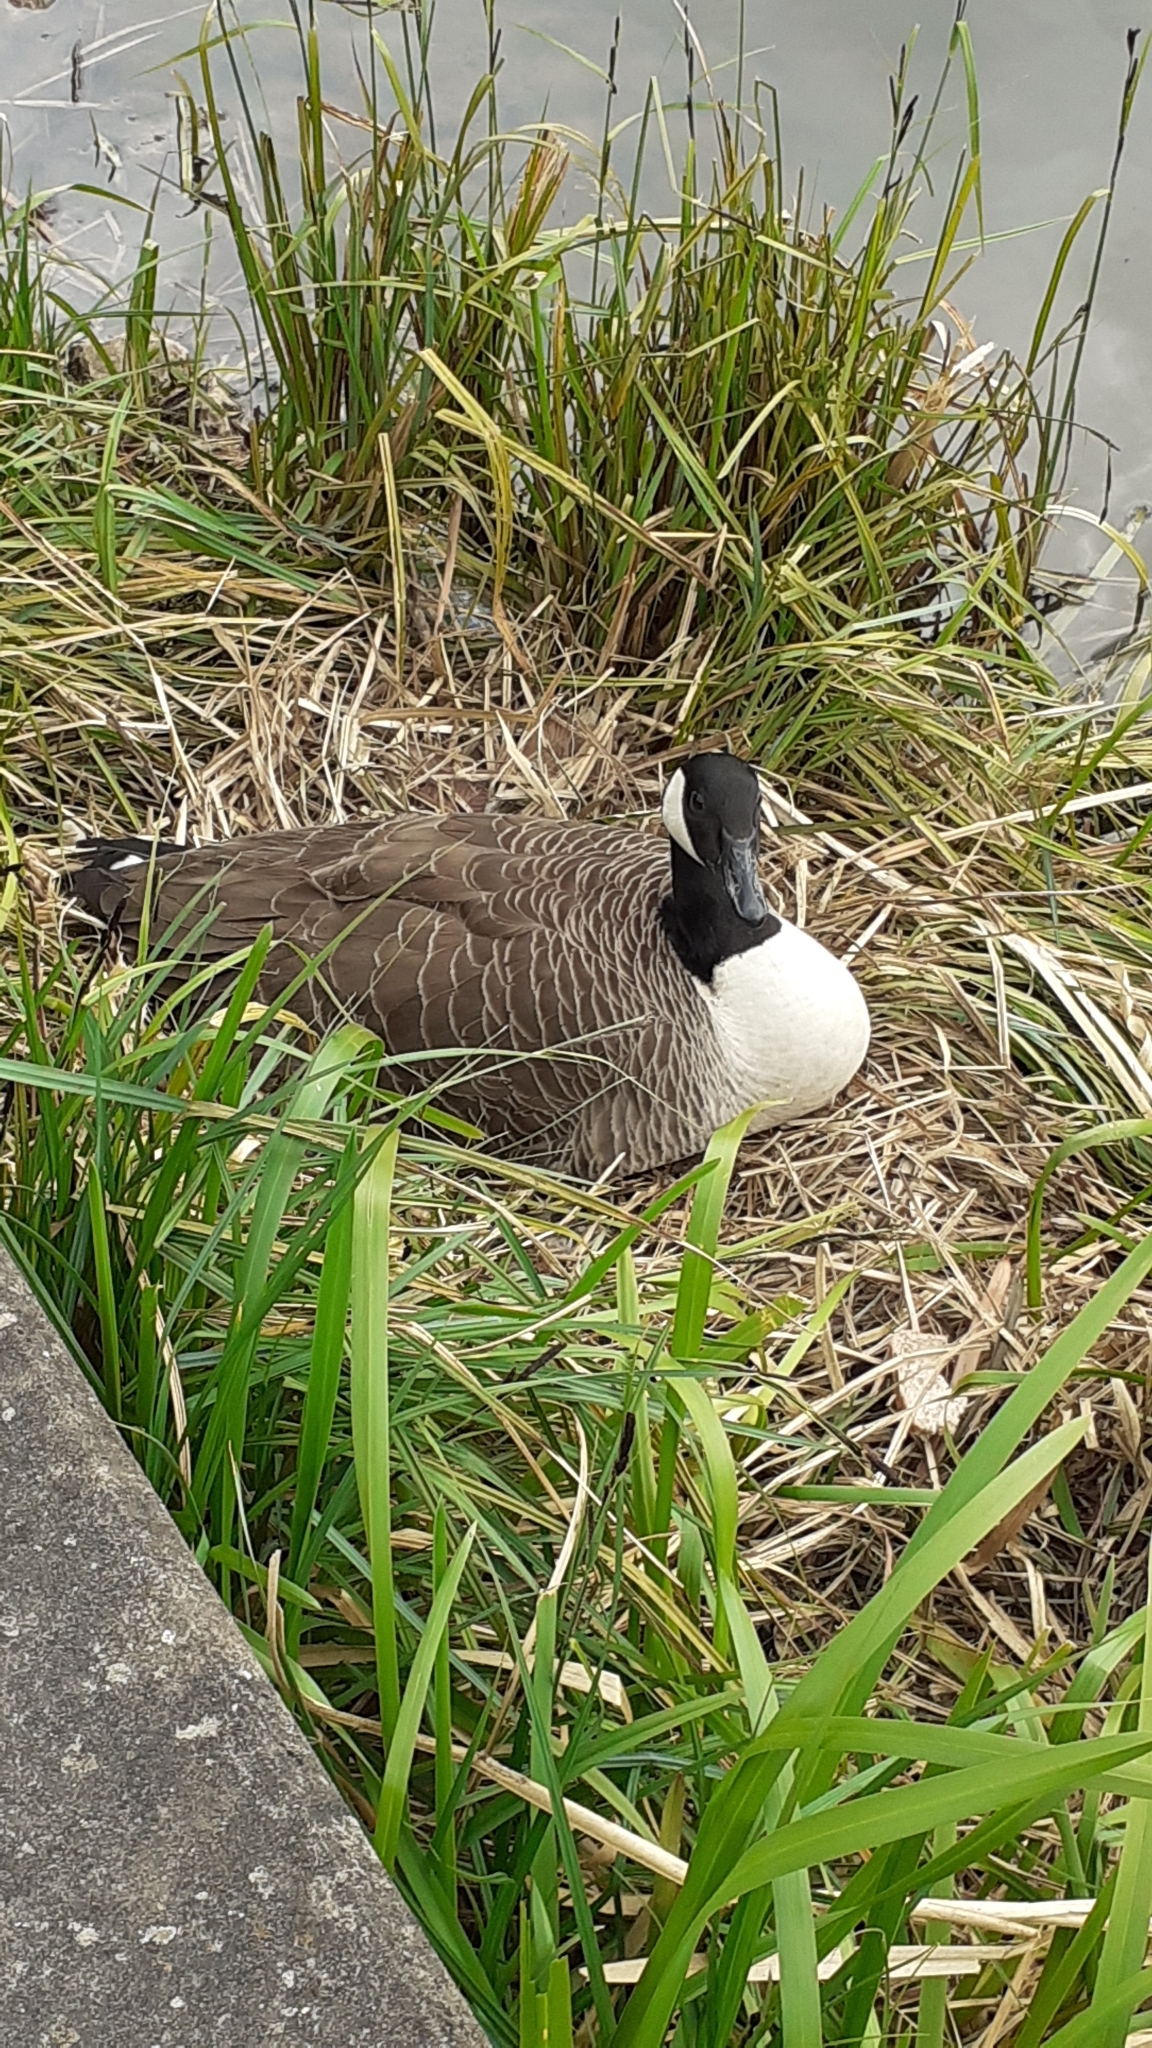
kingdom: Animalia
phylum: Chordata
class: Aves
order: Anseriformes
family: Anatidae
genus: Branta
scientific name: Branta canadensis
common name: Canada goose
